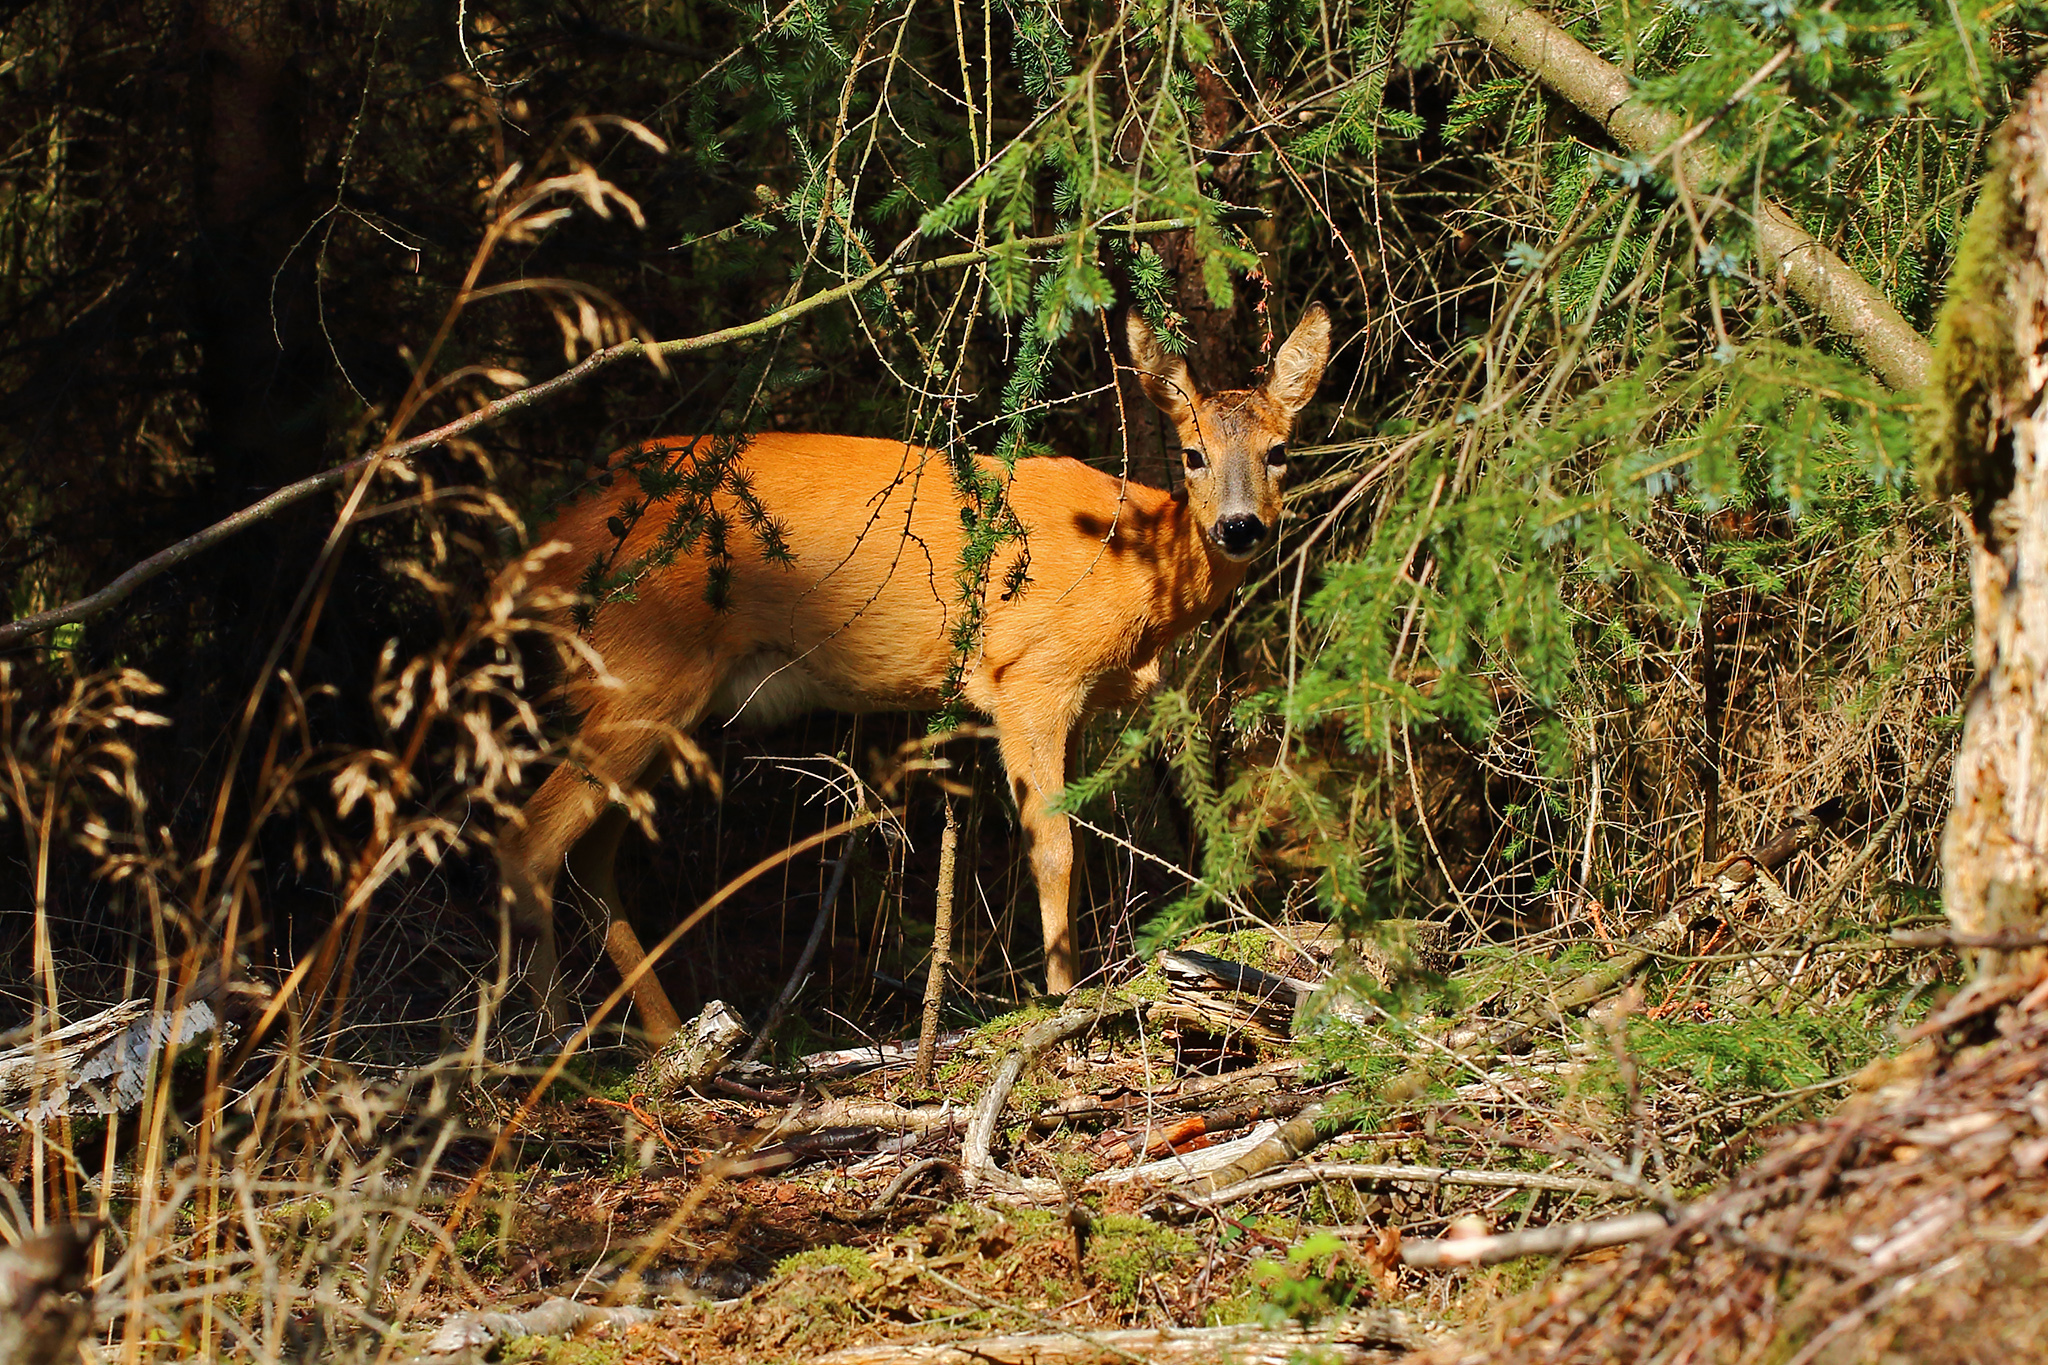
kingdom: Animalia
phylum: Chordata
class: Mammalia
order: Artiodactyla
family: Cervidae
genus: Capreolus
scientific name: Capreolus capreolus
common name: Western roe deer
